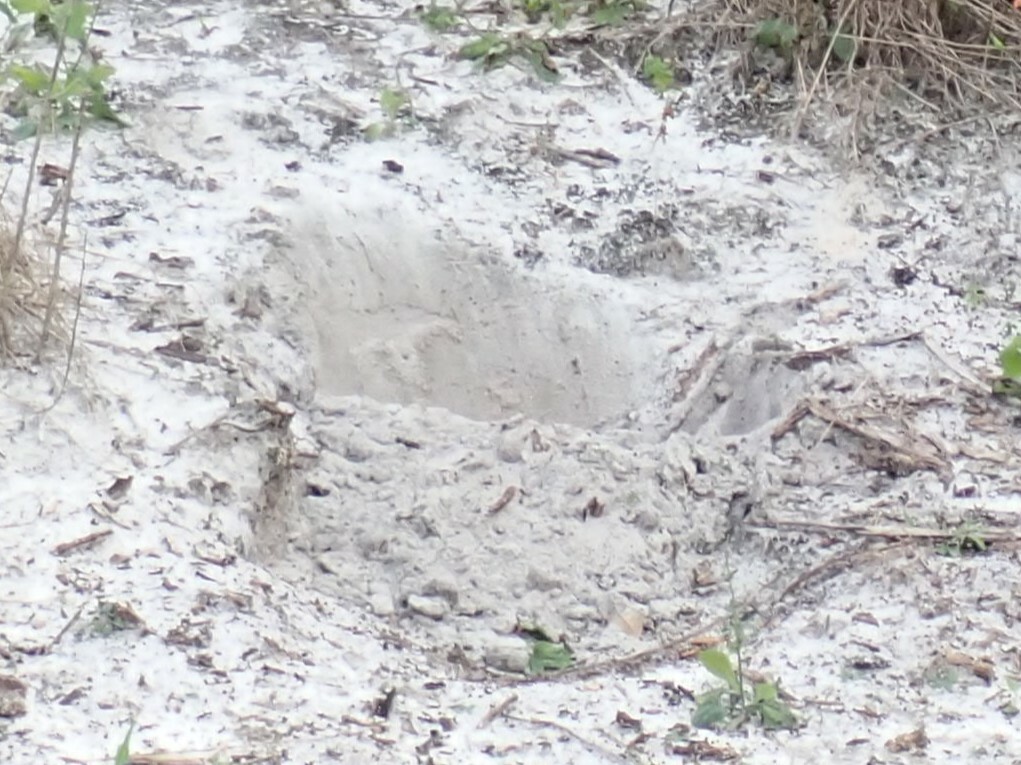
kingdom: Animalia
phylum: Chordata
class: Testudines
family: Testudinidae
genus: Gopherus
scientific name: Gopherus polyphemus
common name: Florida gopher tortoise
